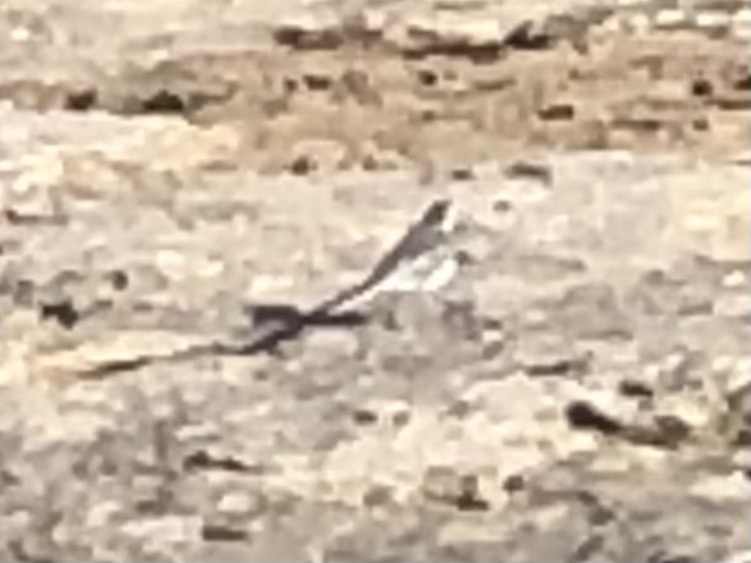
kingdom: Animalia
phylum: Chordata
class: Aves
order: Passeriformes
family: Motacillidae
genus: Motacilla
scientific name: Motacilla alba
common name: White wagtail
